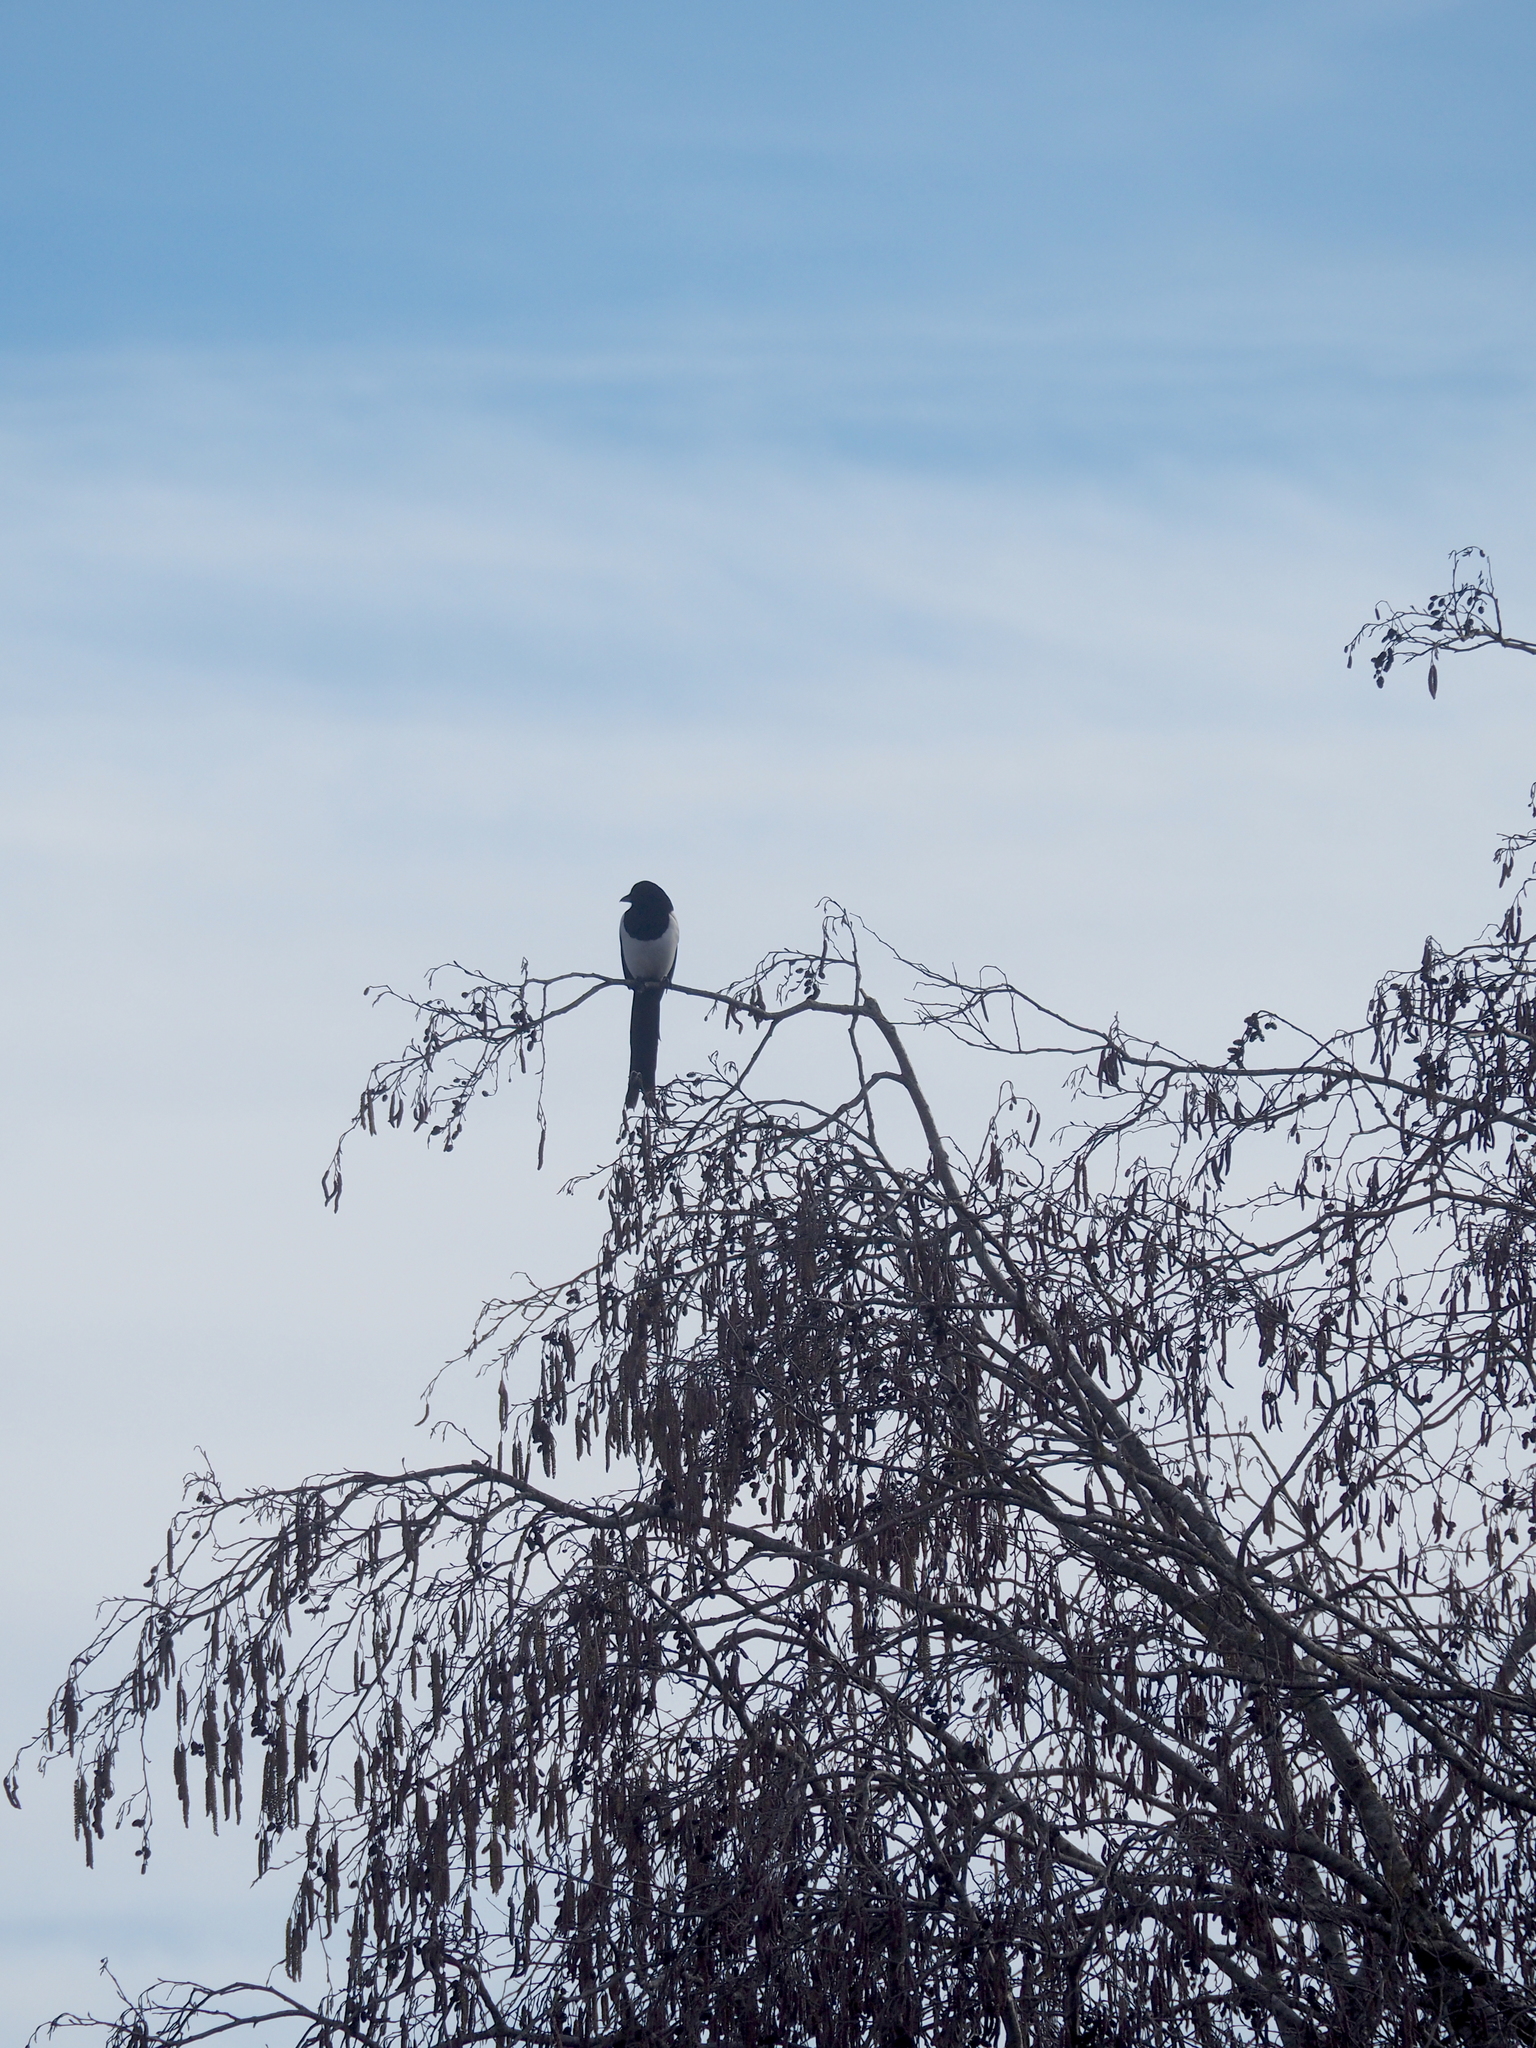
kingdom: Animalia
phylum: Chordata
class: Aves
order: Passeriformes
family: Corvidae
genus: Pica
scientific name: Pica pica
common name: Eurasian magpie
